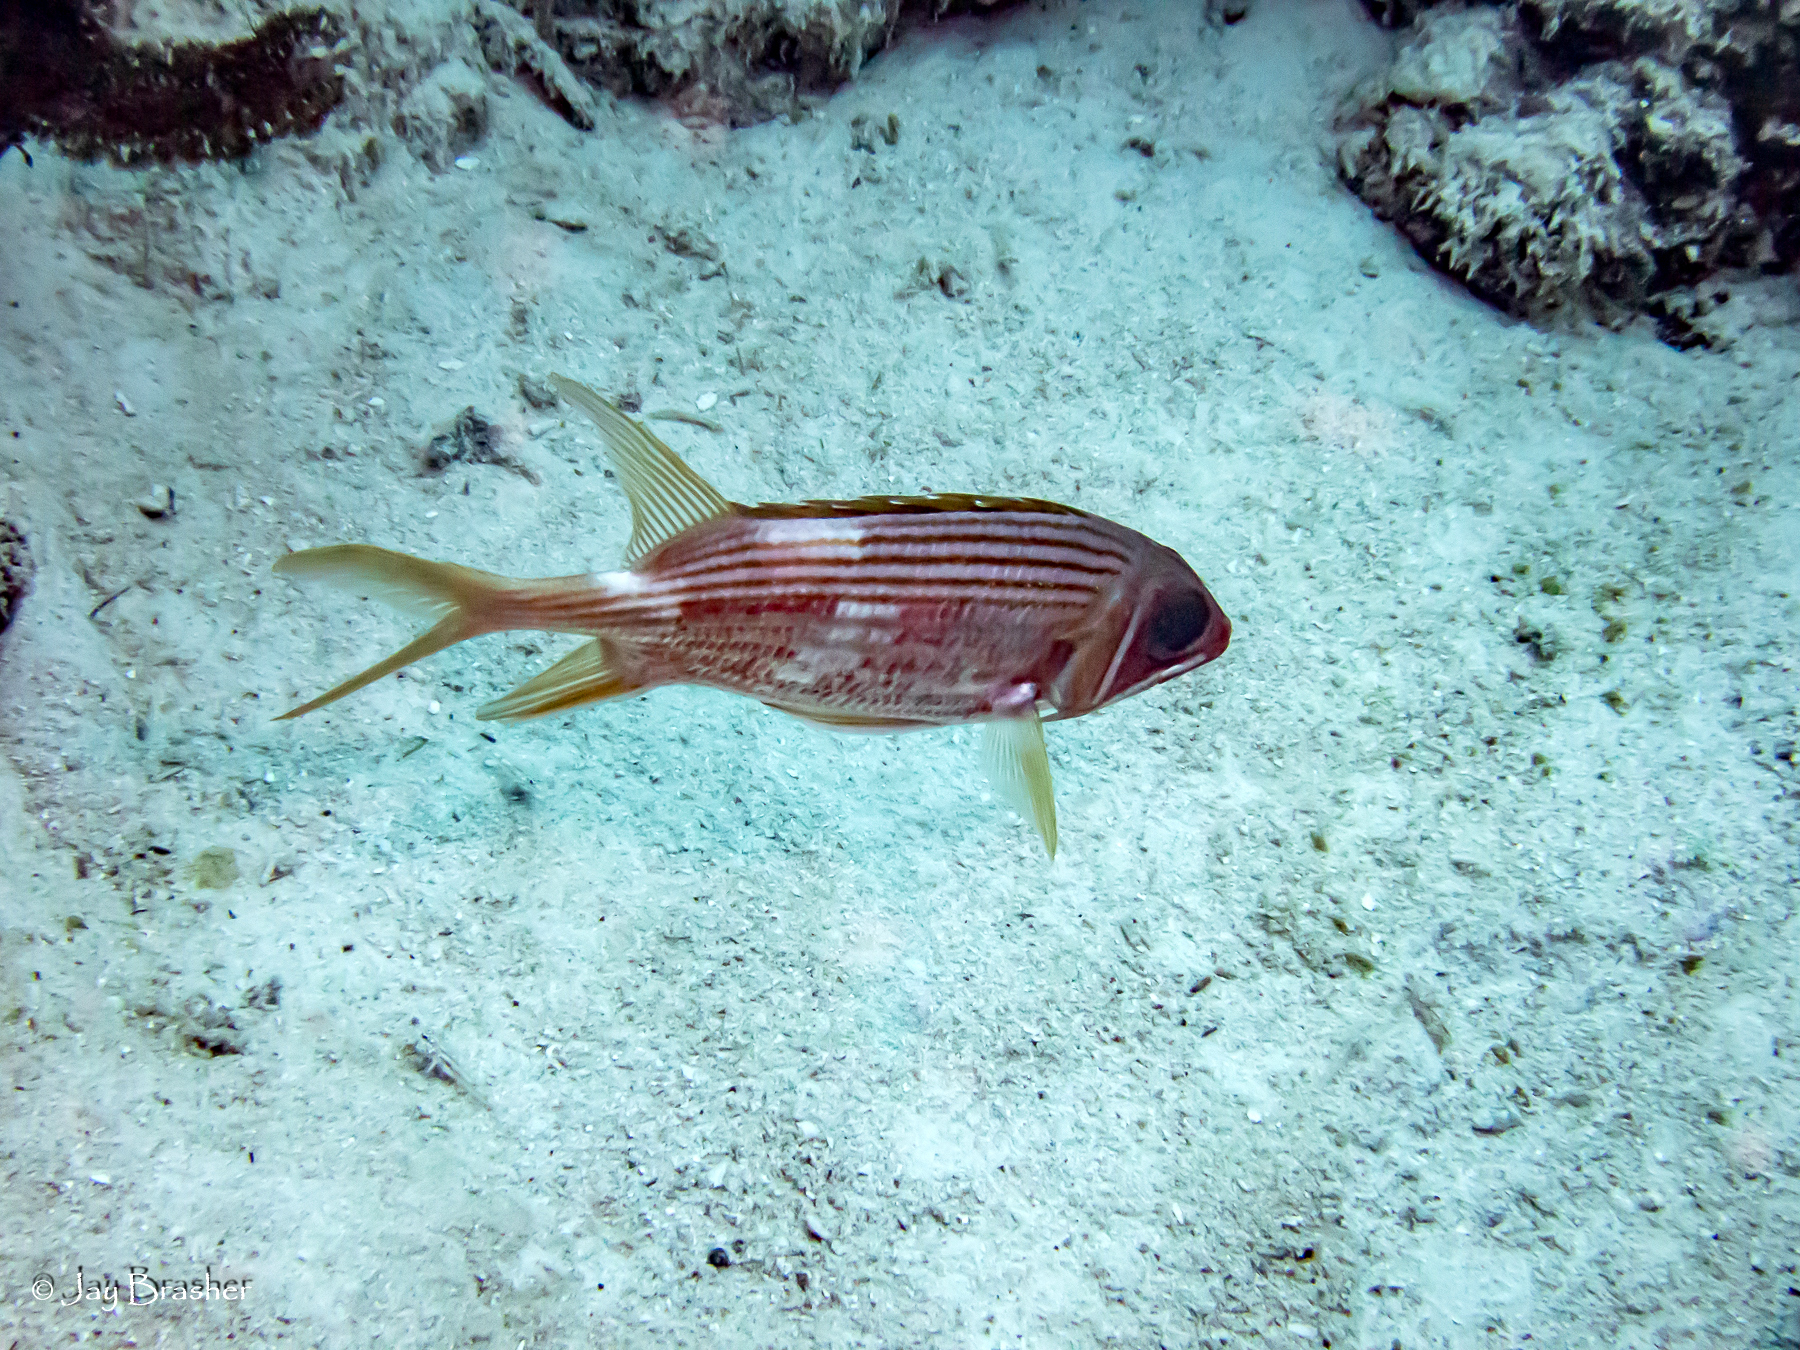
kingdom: Animalia
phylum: Chordata
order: Beryciformes
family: Holocentridae
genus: Holocentrus
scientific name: Holocentrus rufus
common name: Longspine squirrelfish
